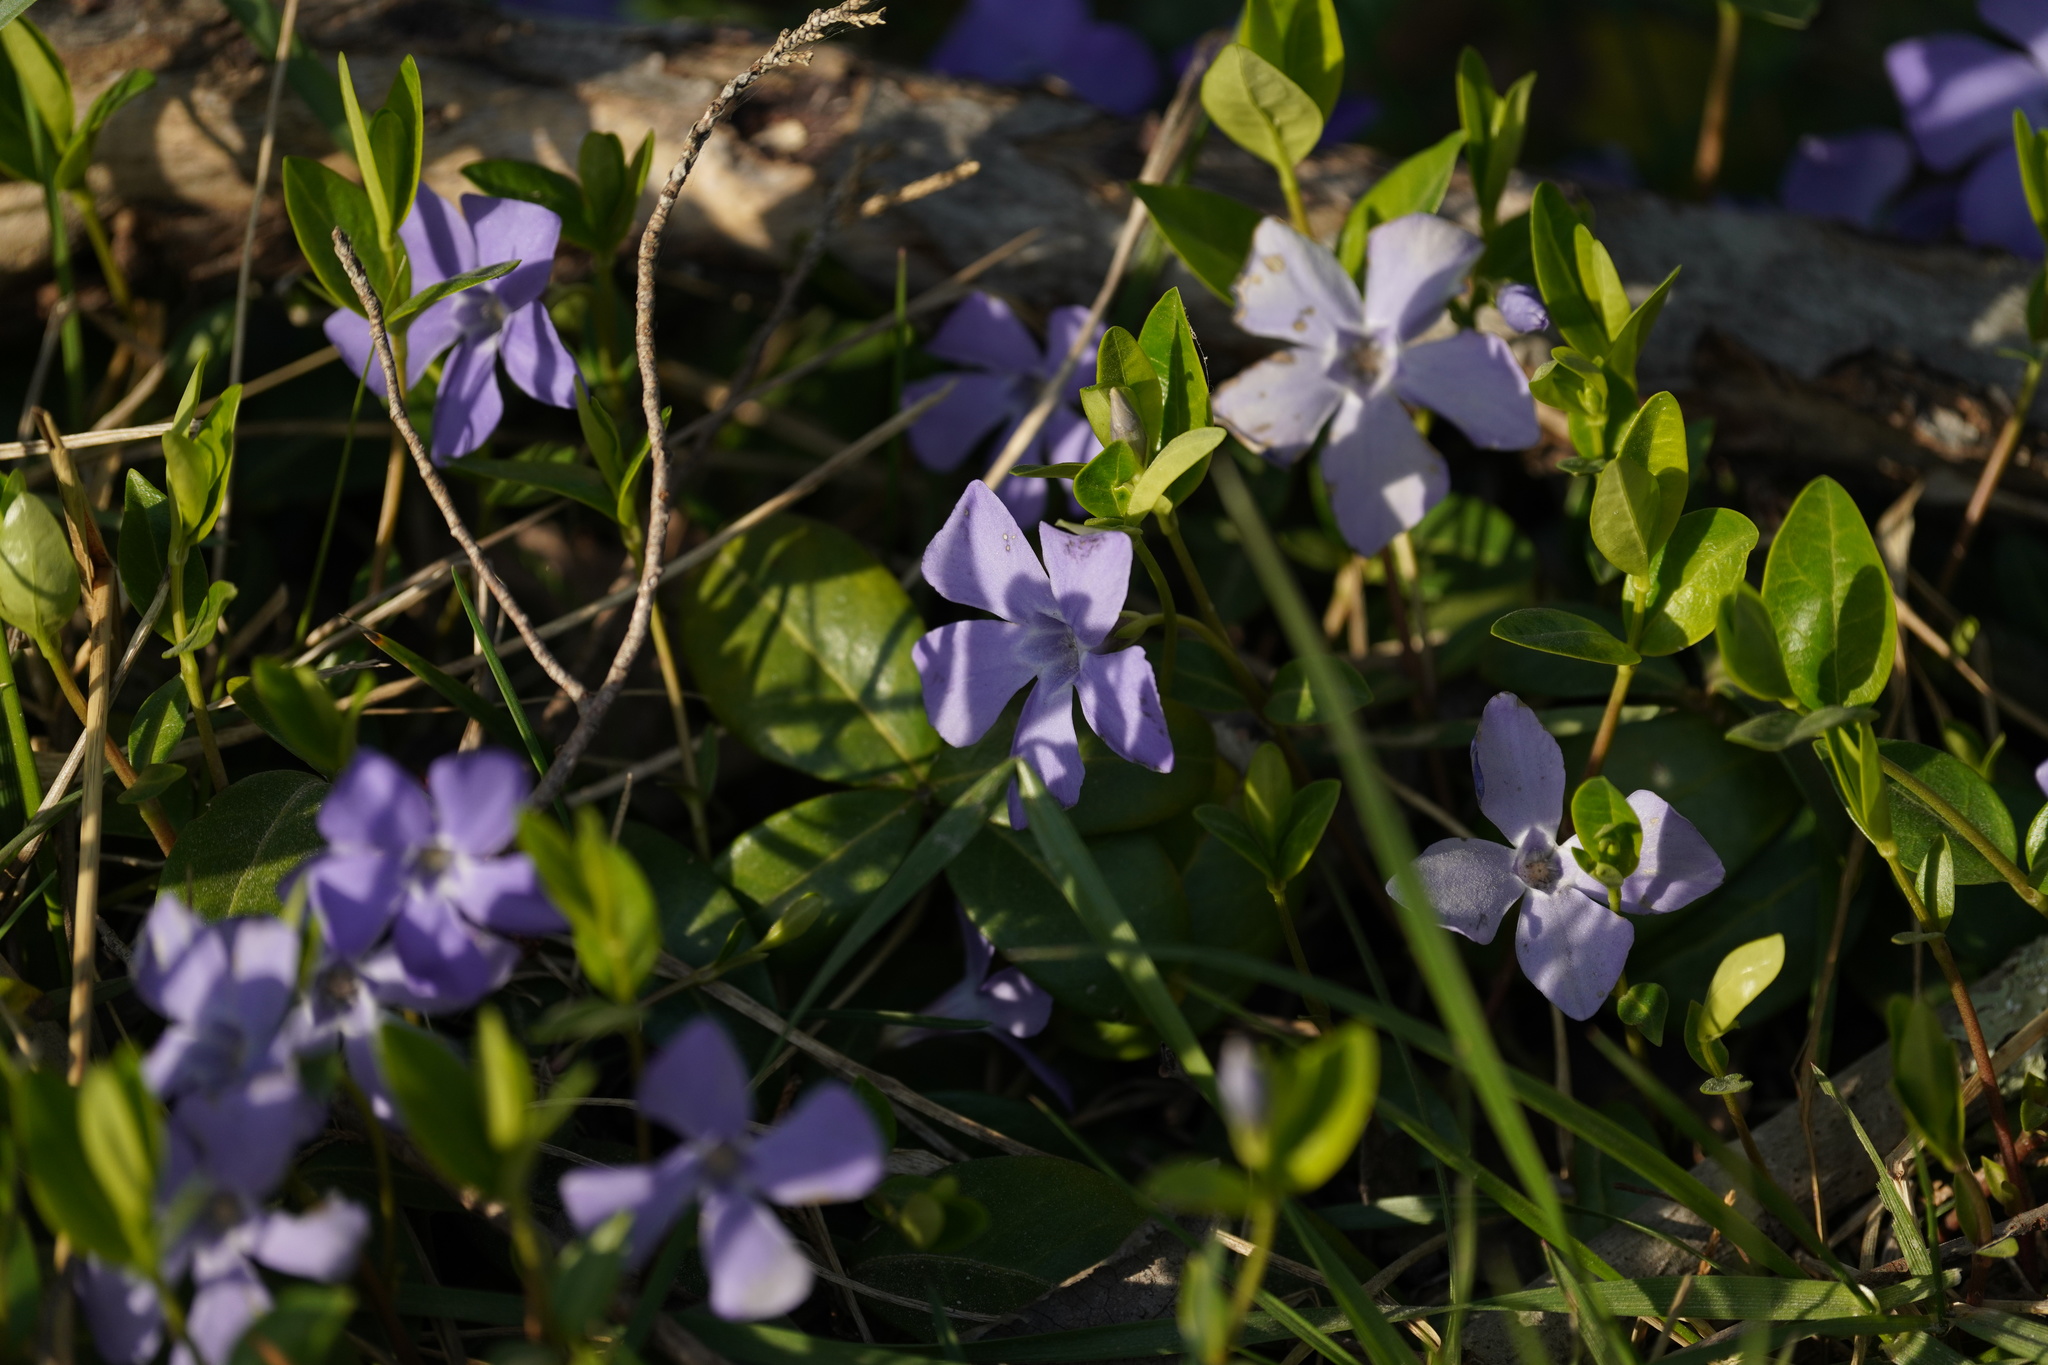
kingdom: Plantae
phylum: Tracheophyta
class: Magnoliopsida
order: Gentianales
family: Apocynaceae
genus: Vinca
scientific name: Vinca minor
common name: Lesser periwinkle
